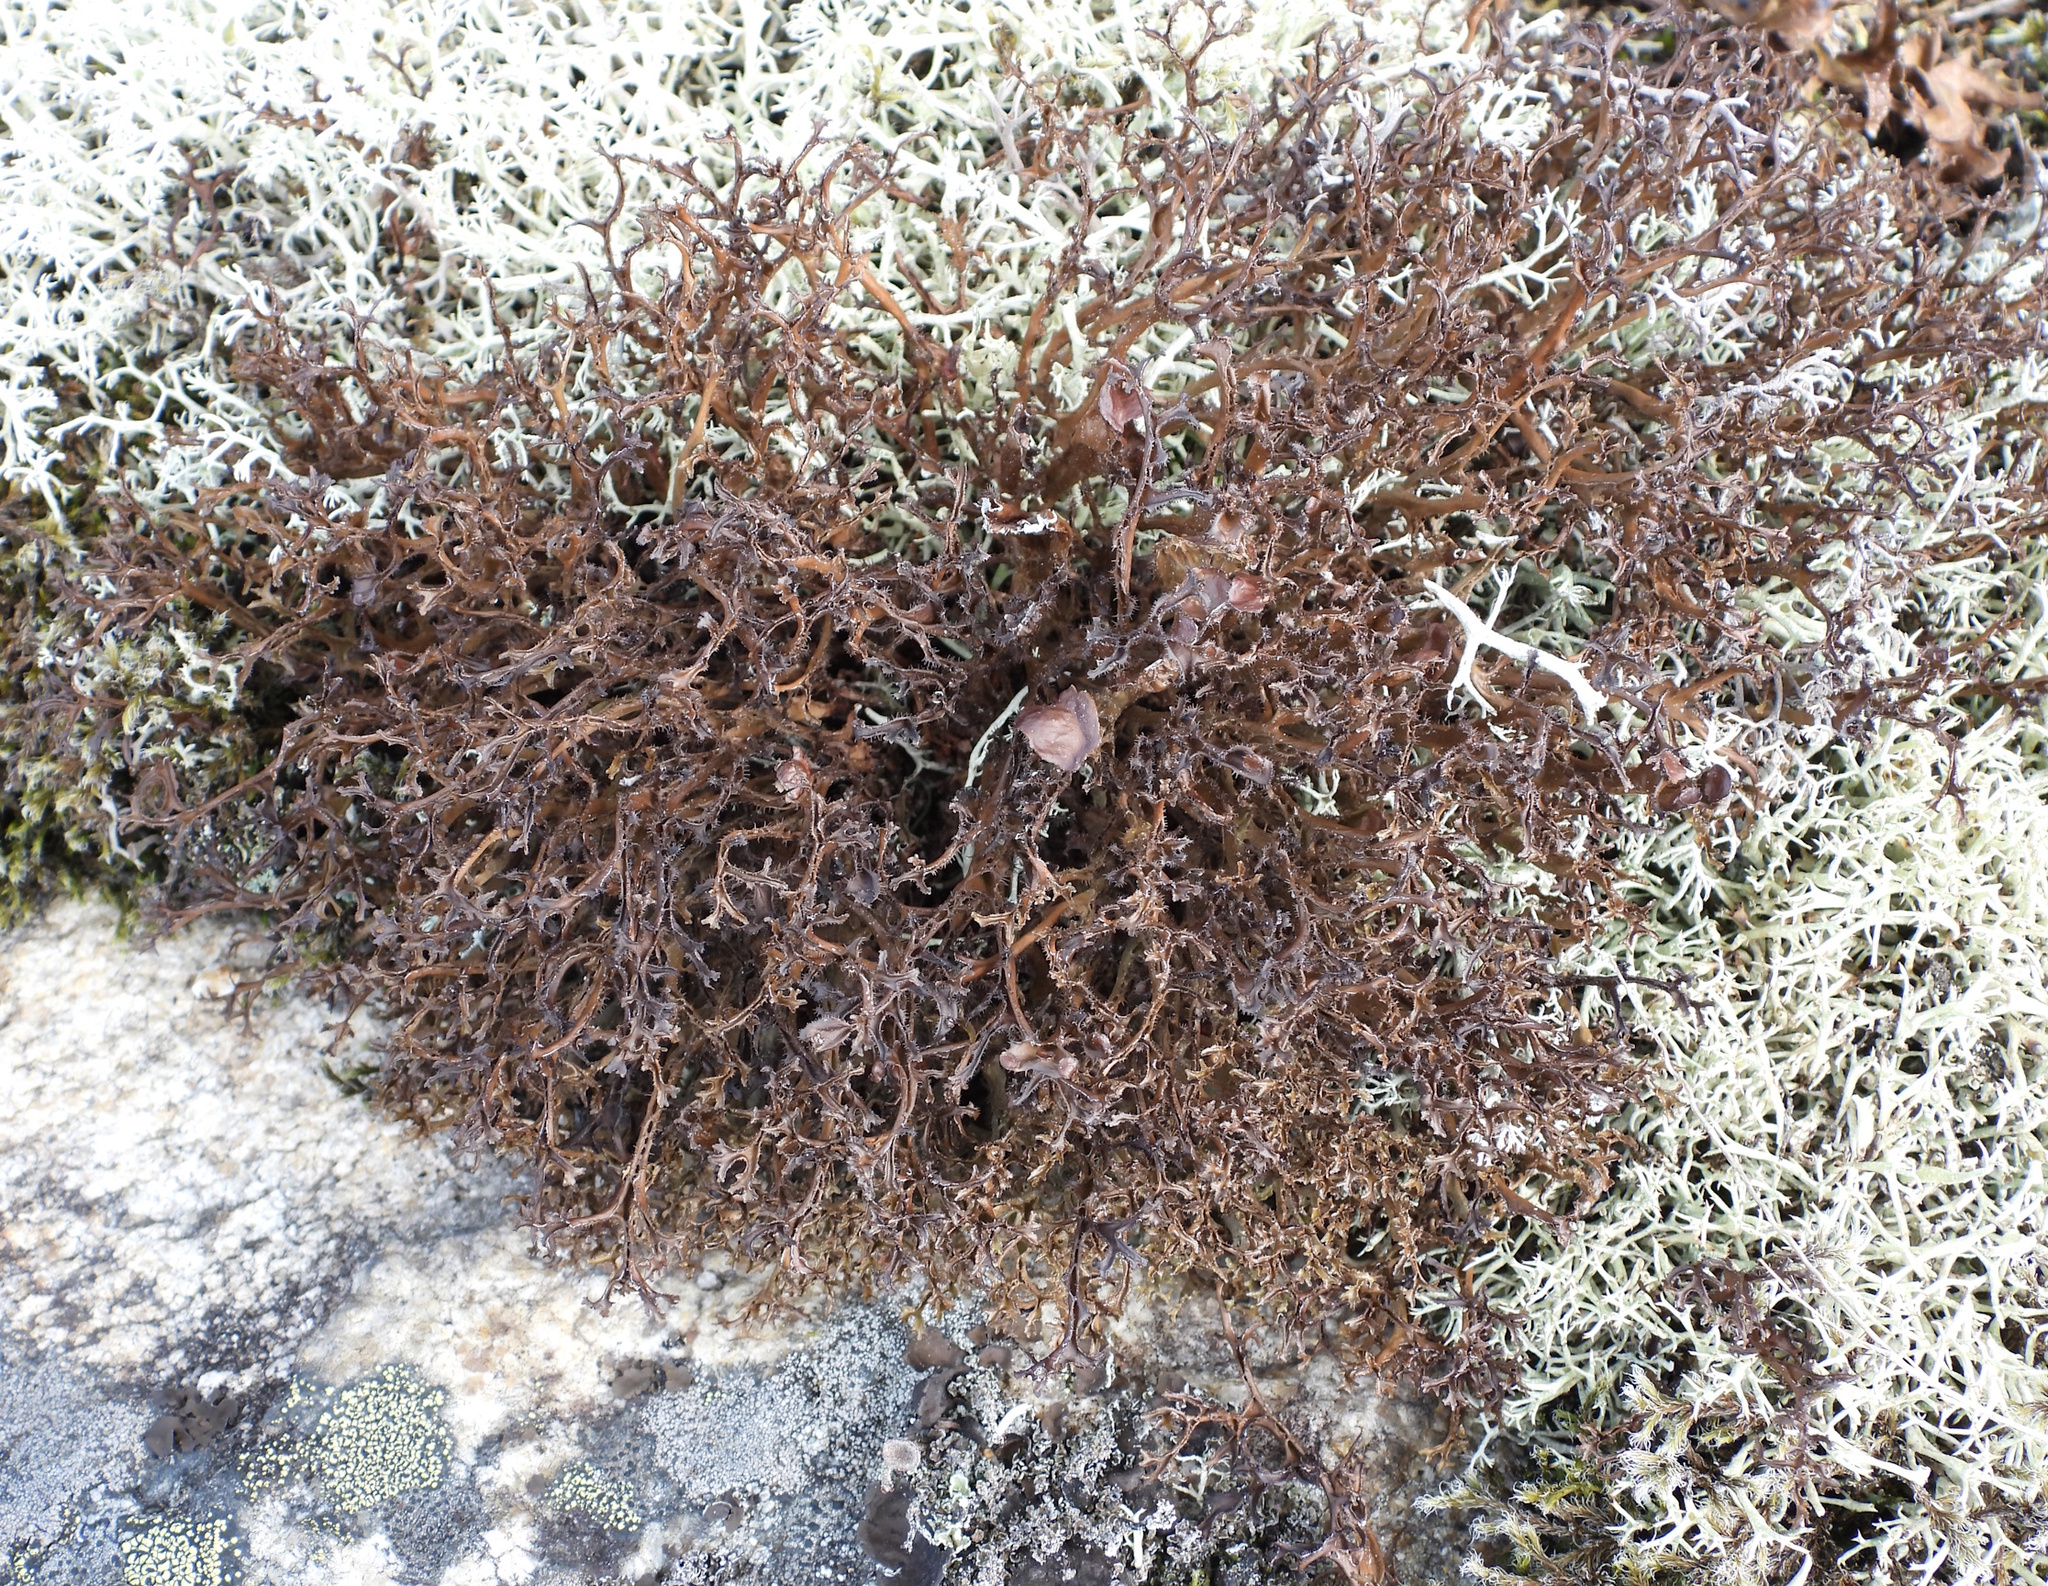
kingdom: Fungi
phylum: Ascomycota
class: Lecanoromycetes
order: Lecanorales
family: Parmeliaceae
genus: Cetraria
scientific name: Cetraria ericetorum
